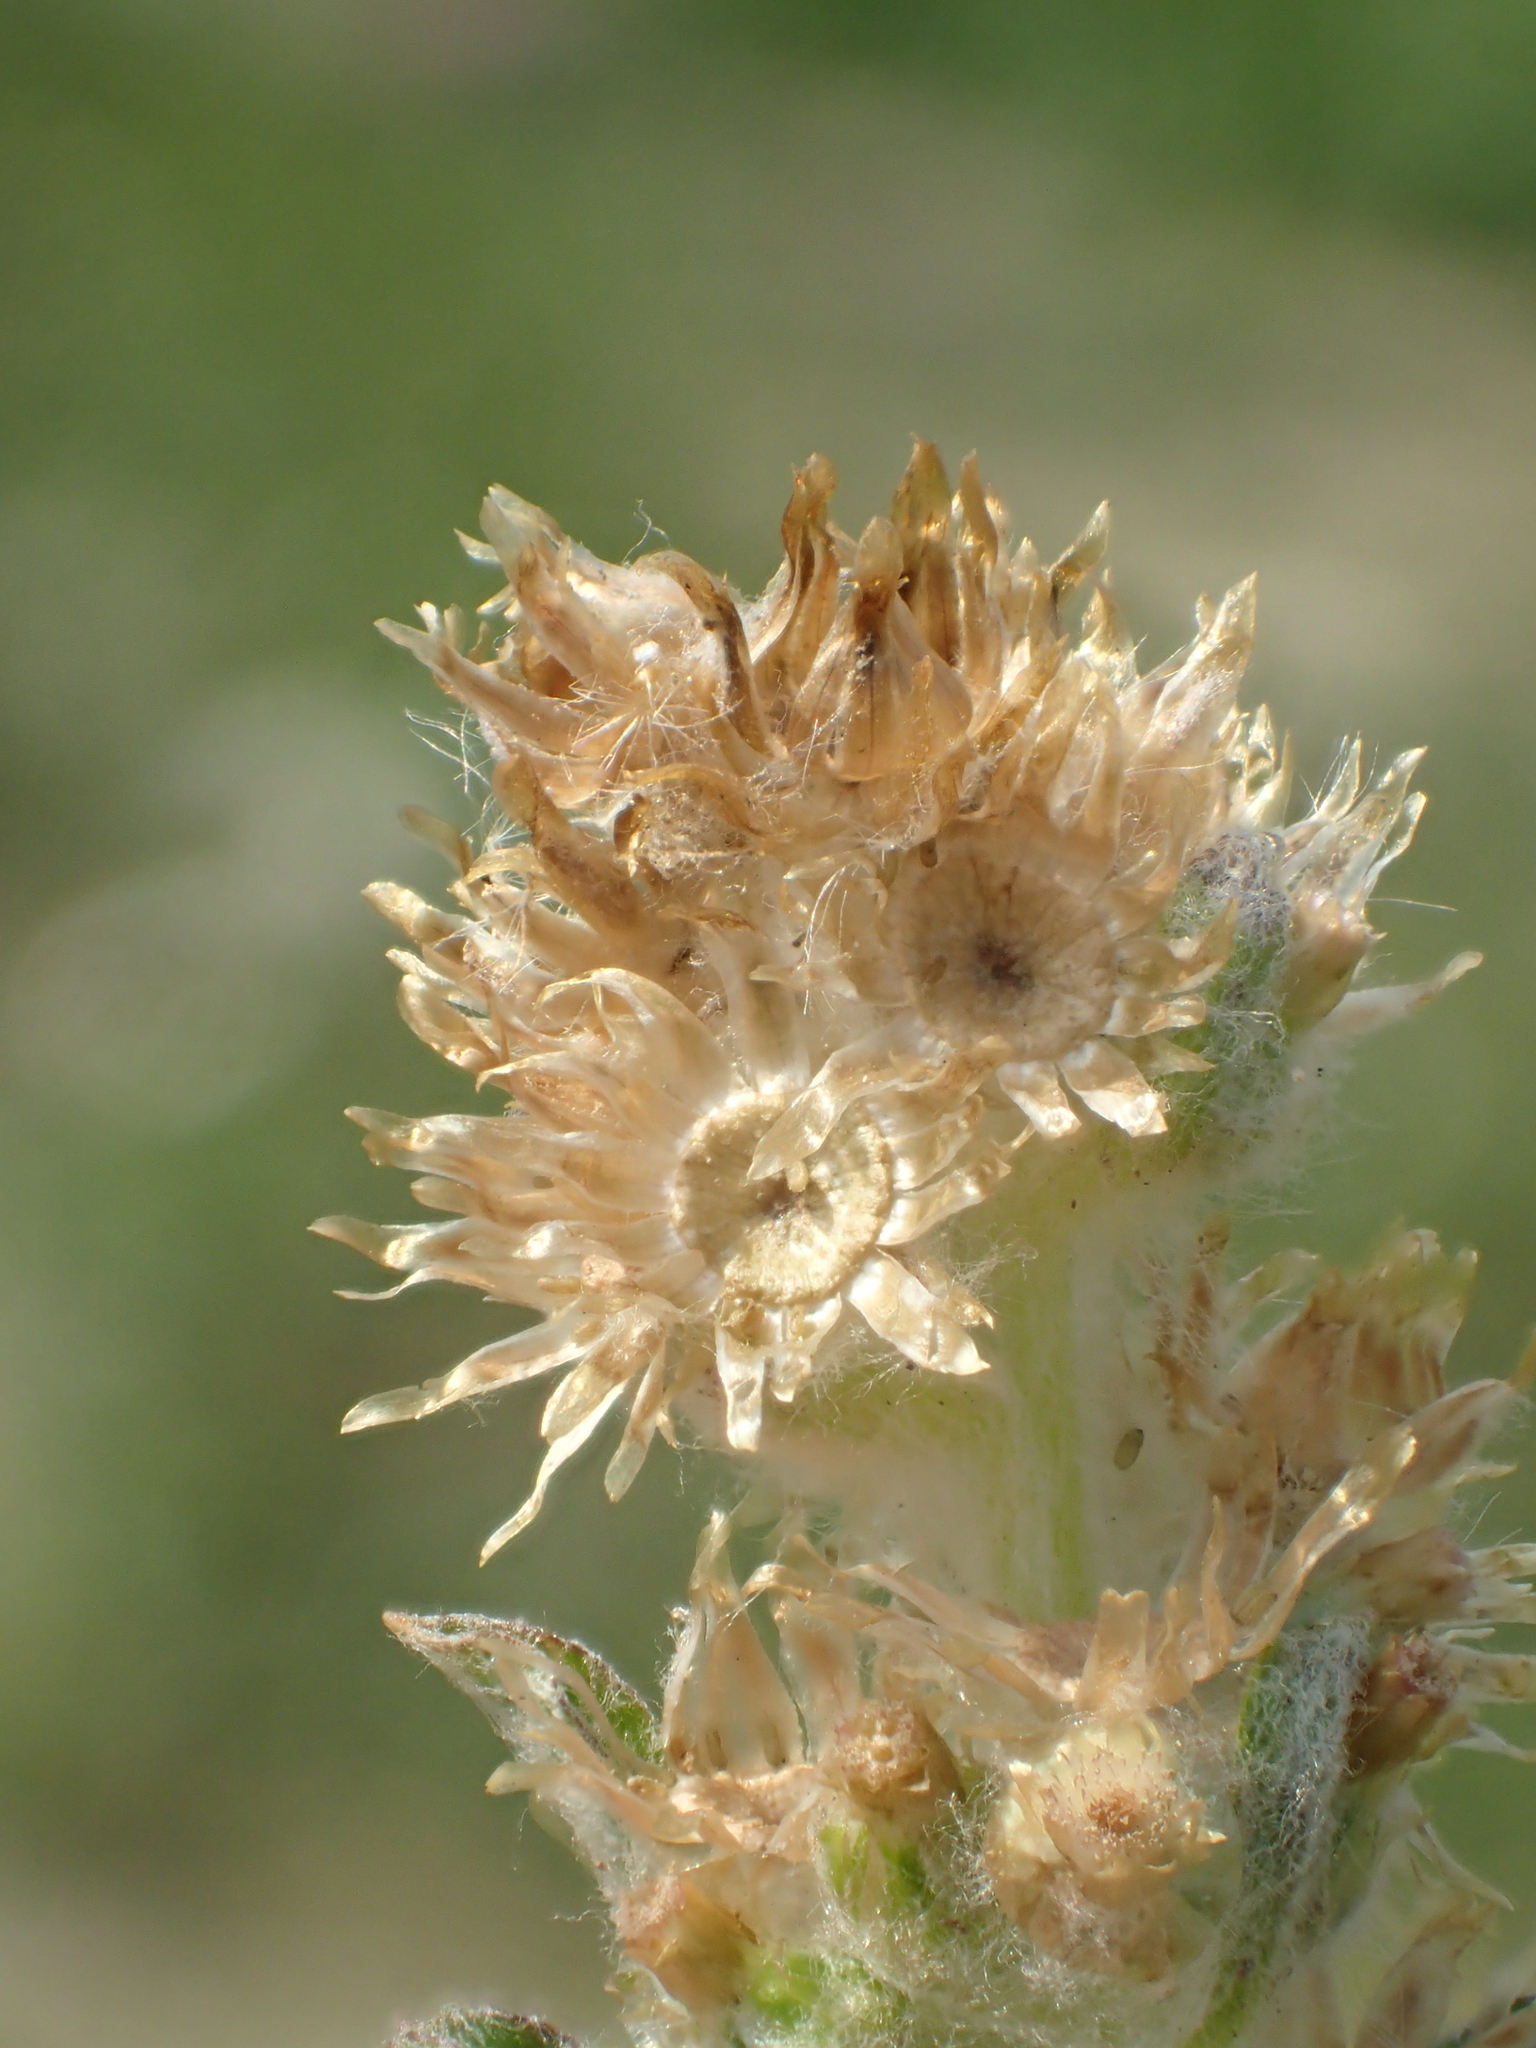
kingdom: Plantae
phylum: Tracheophyta
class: Magnoliopsida
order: Asterales
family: Asteraceae
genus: Gamochaeta
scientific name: Gamochaeta purpurea
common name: Purple cudweed
